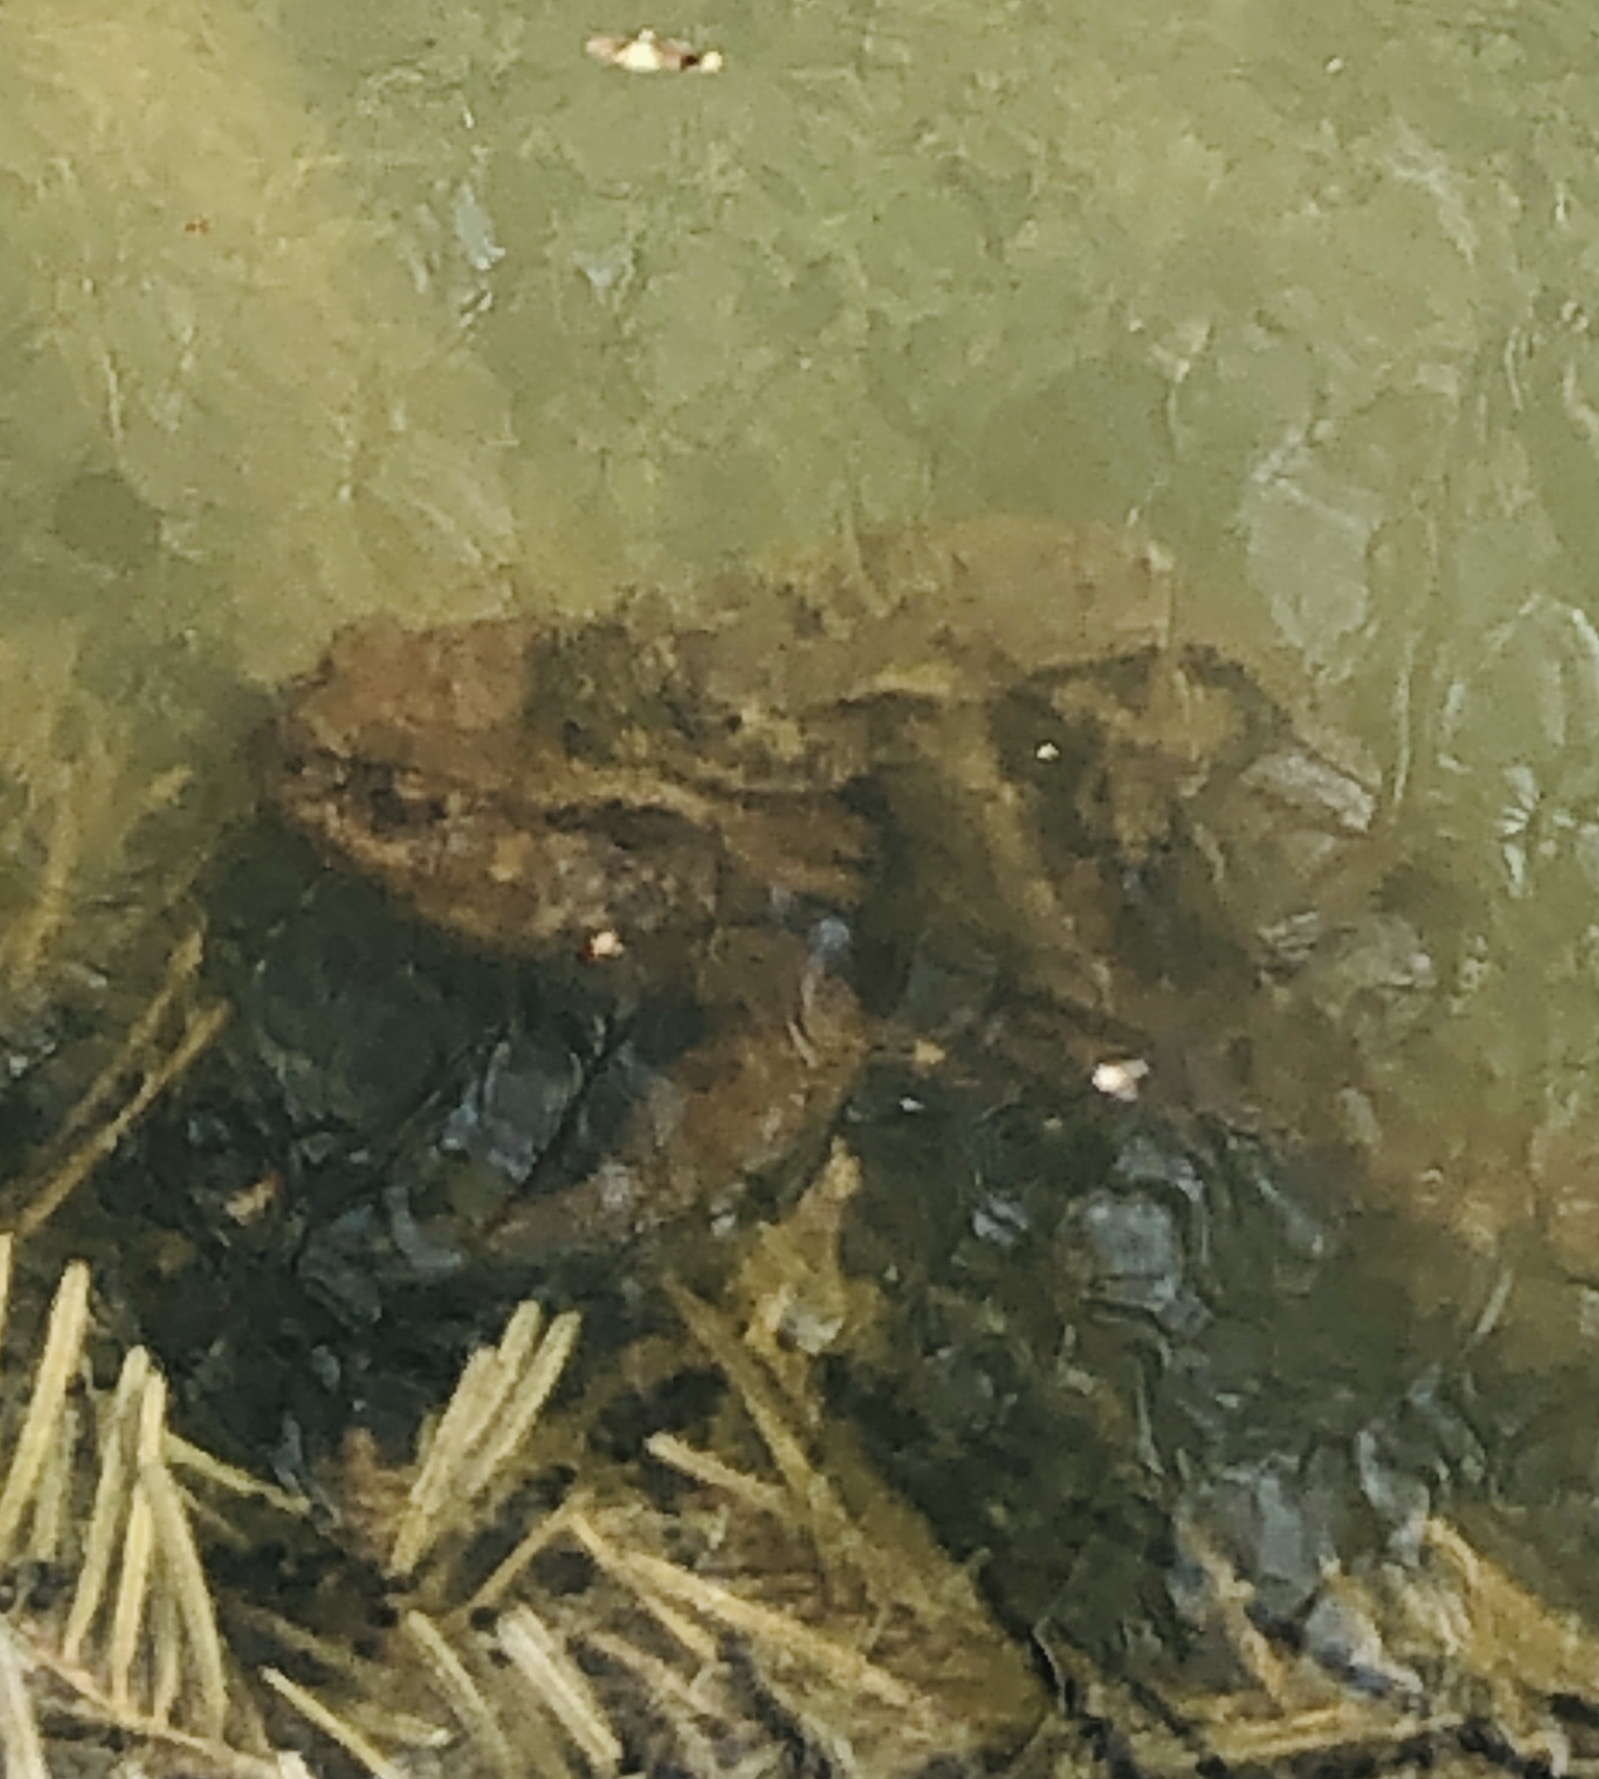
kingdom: Animalia
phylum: Chordata
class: Amphibia
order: Anura
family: Bufonidae
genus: Bufo
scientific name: Bufo bufo
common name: Common toad
